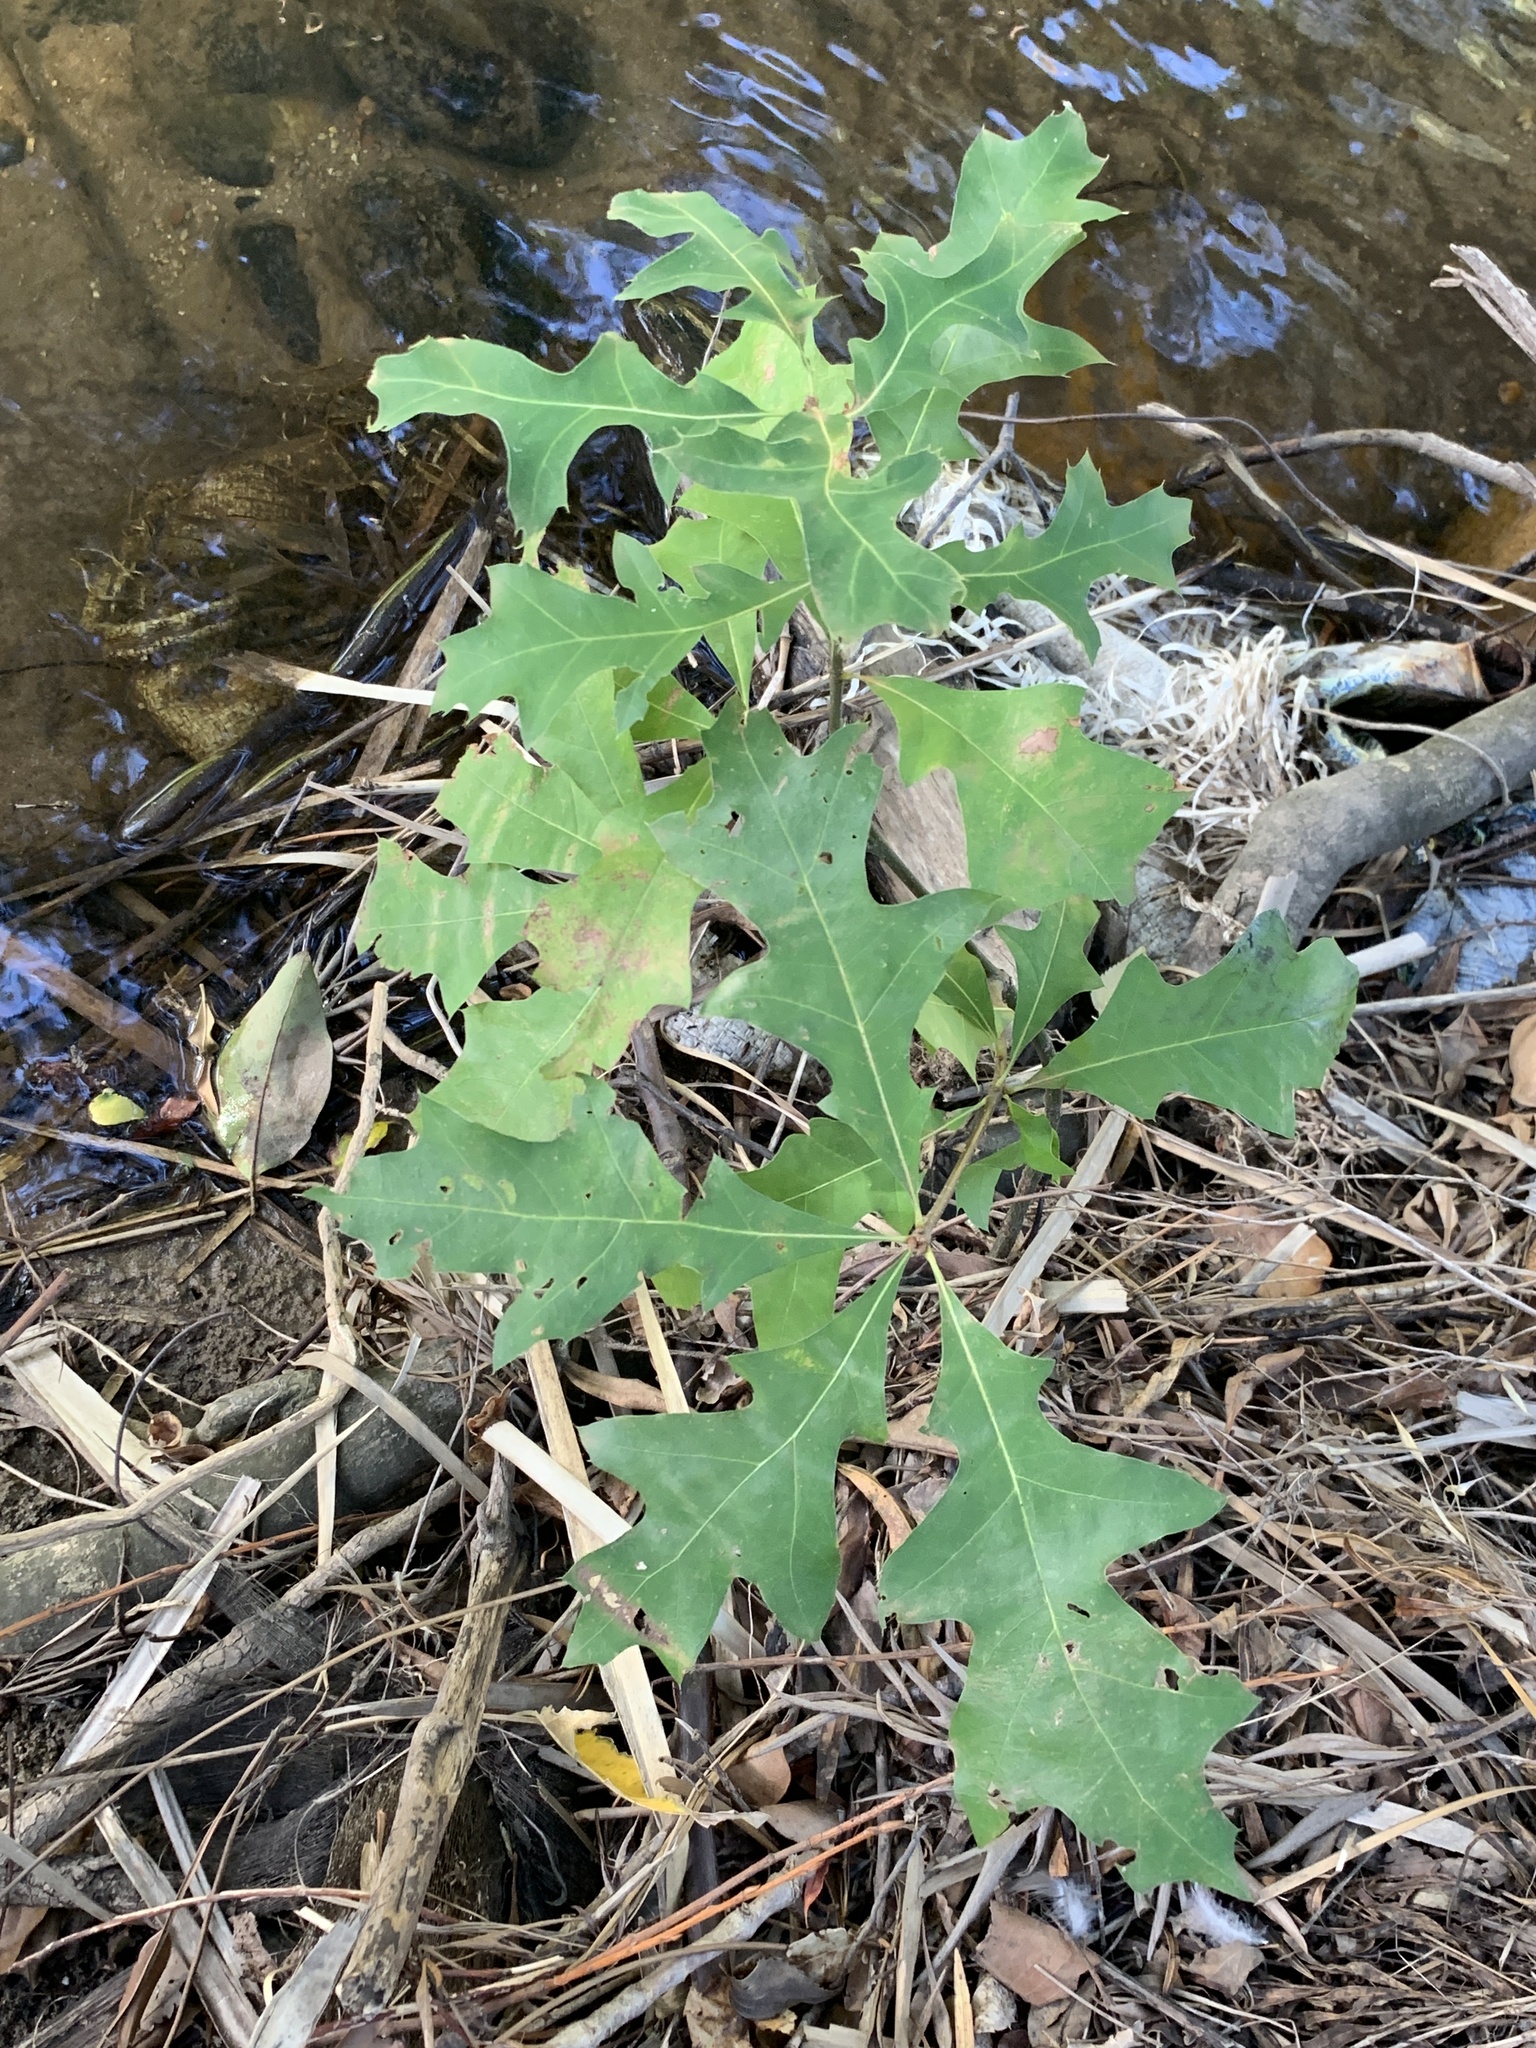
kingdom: Plantae
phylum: Tracheophyta
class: Magnoliopsida
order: Fagales
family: Fagaceae
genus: Quercus
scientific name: Quercus palustris
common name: Pin oak
